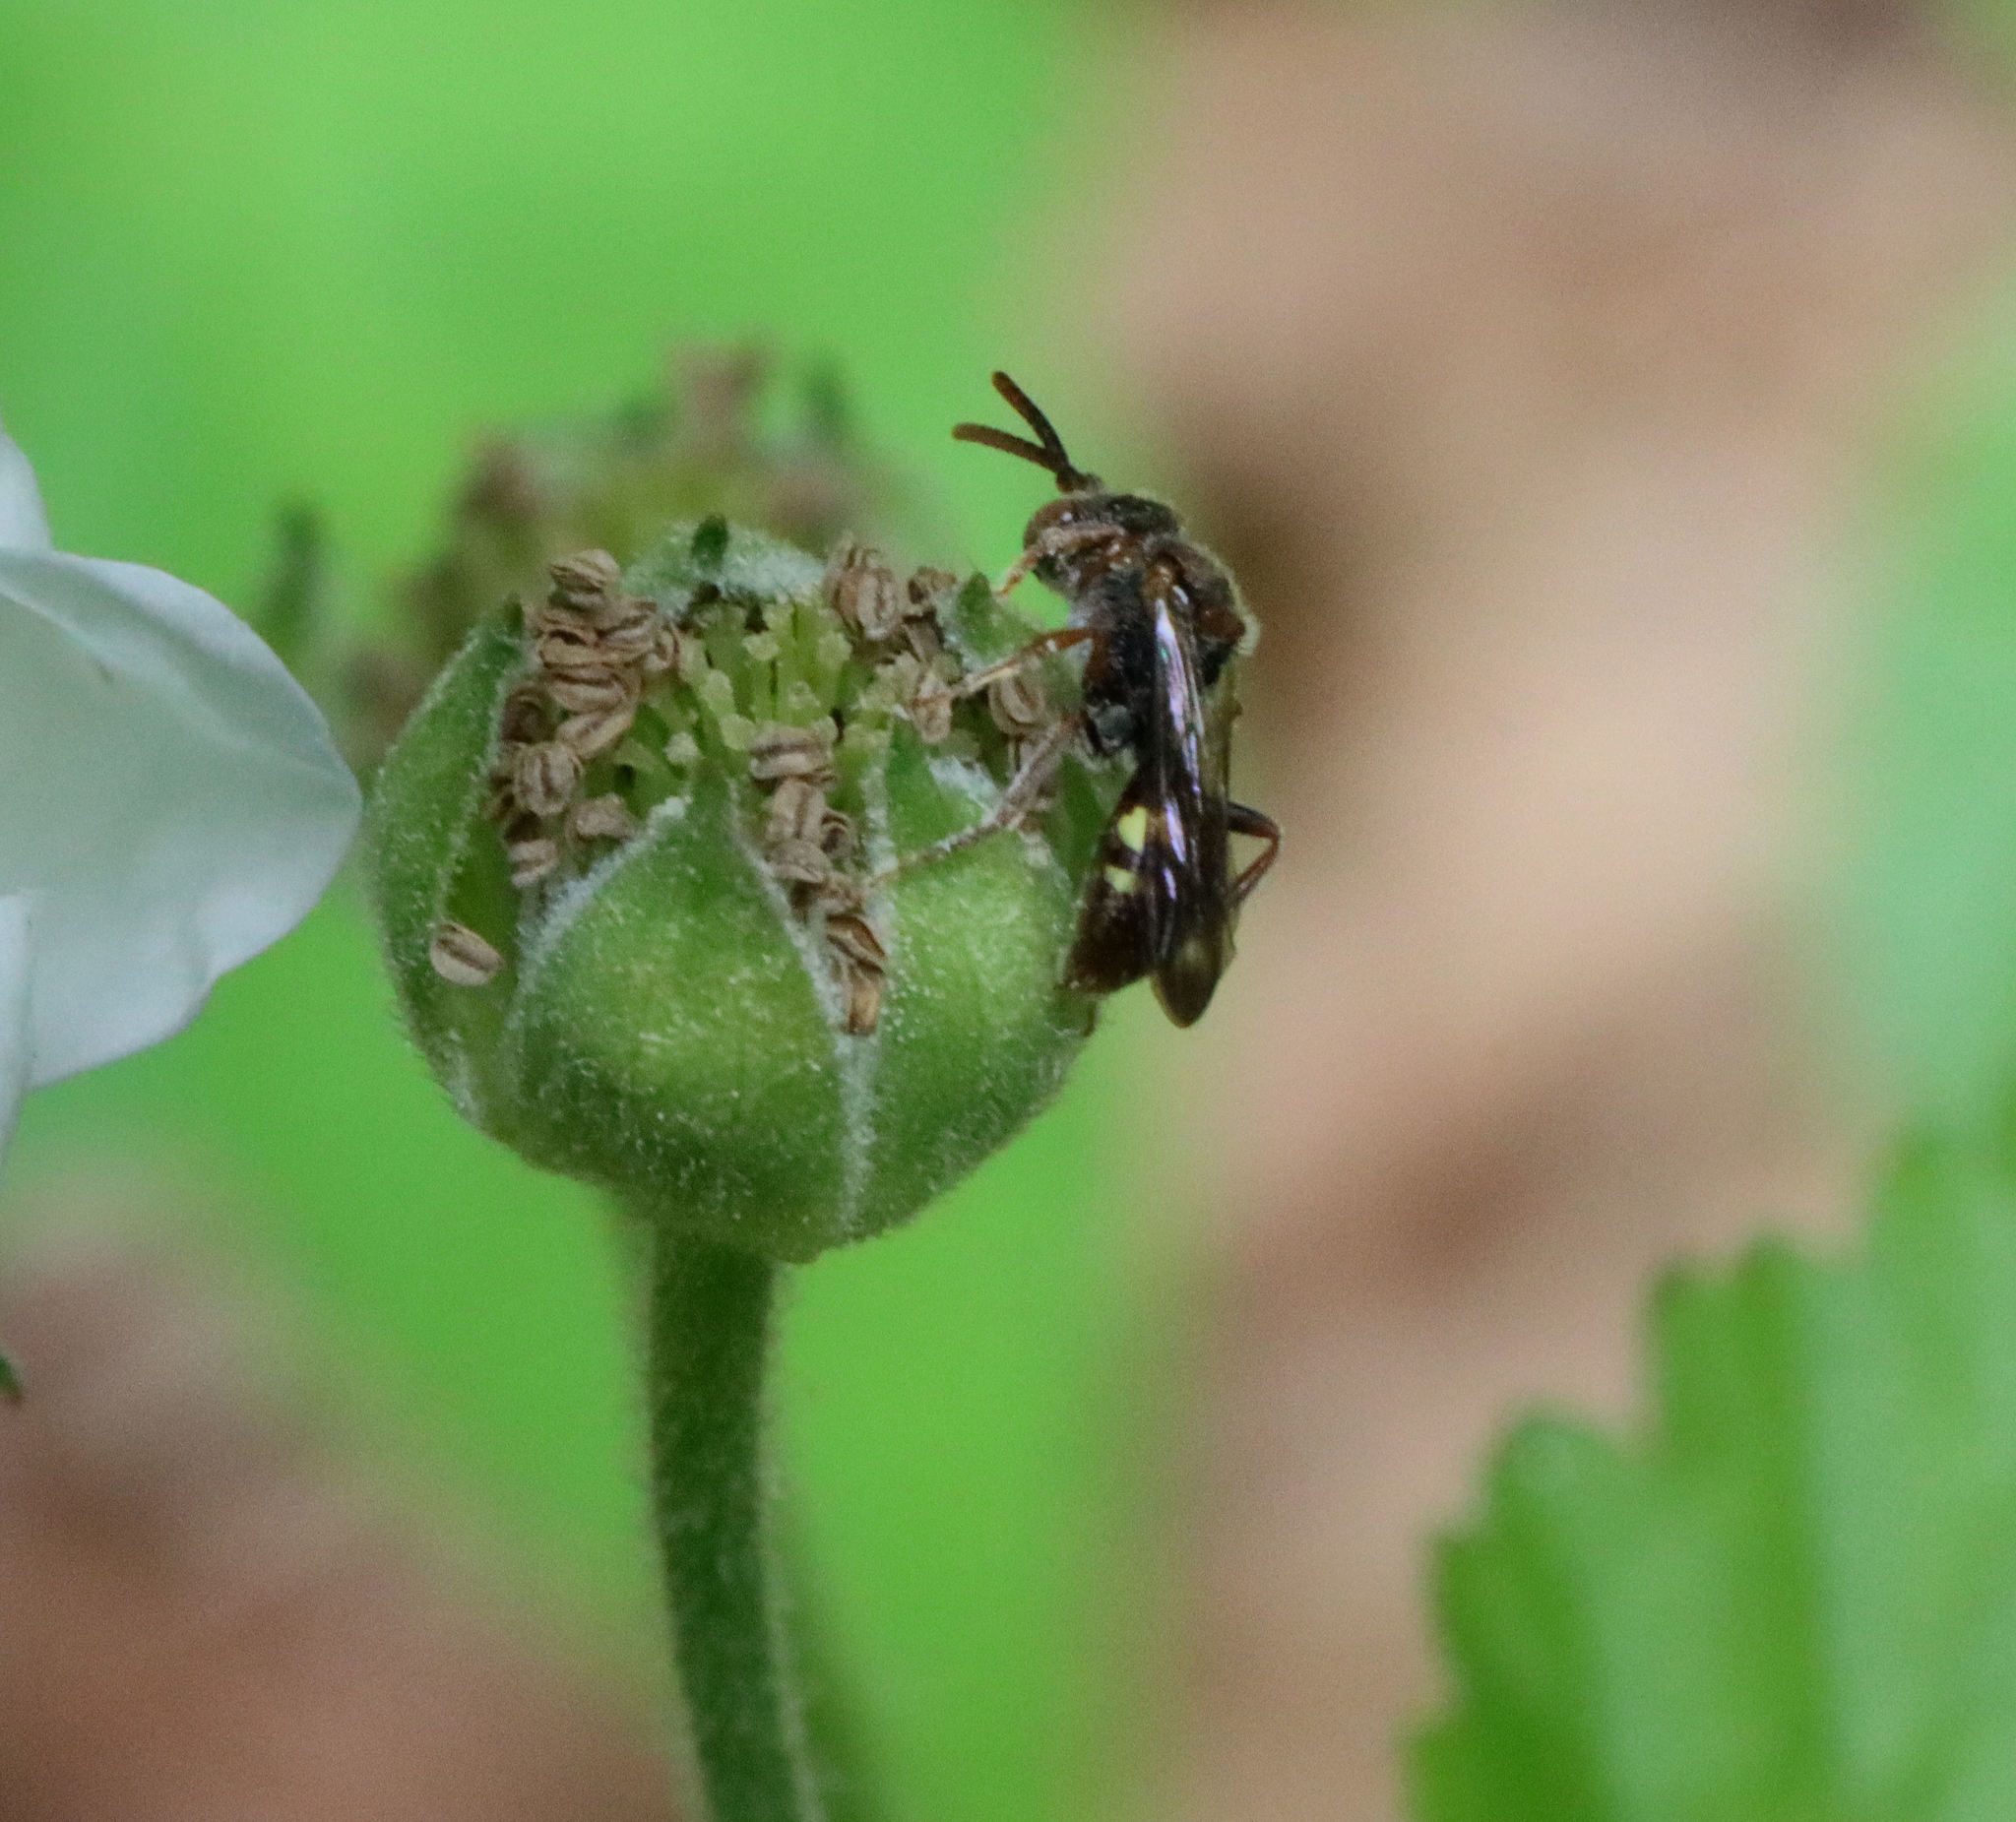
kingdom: Animalia
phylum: Arthropoda
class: Insecta
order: Hymenoptera
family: Apidae
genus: Nomada
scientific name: Nomada
